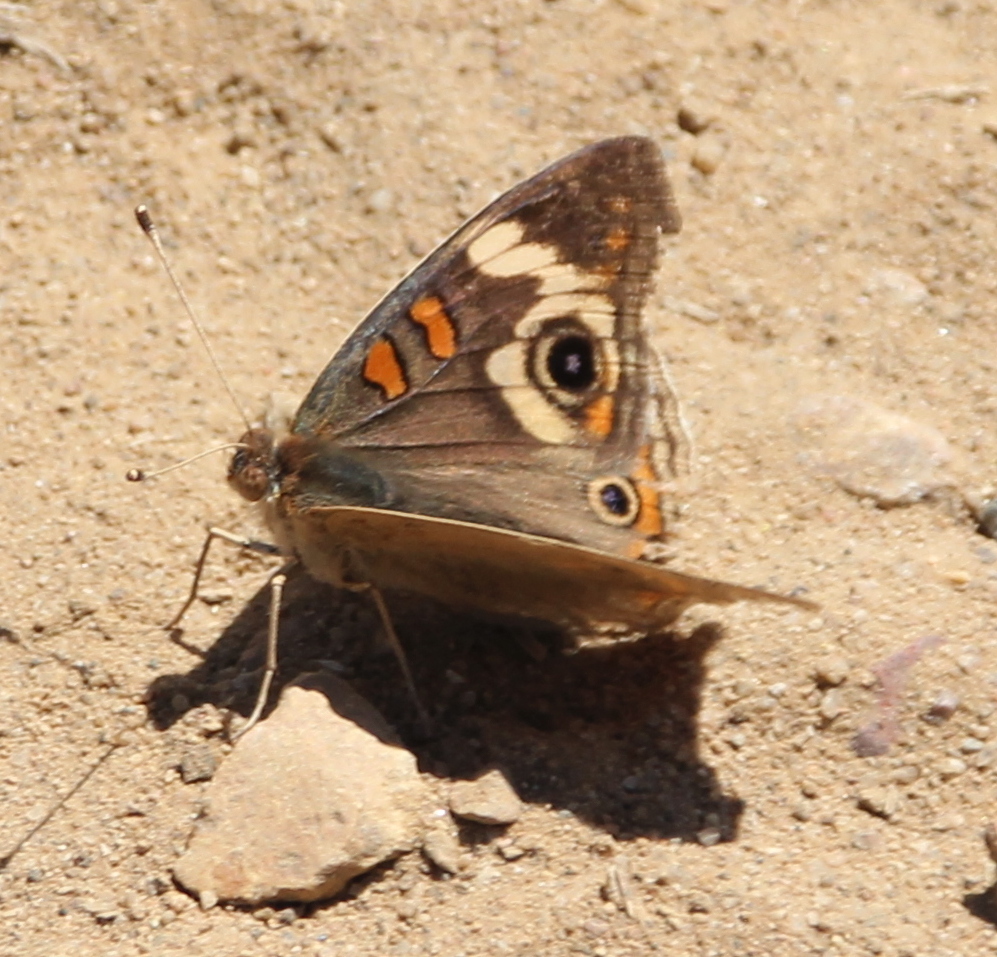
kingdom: Animalia
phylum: Arthropoda
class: Insecta
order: Lepidoptera
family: Nymphalidae
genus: Junonia
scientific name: Junonia grisea
